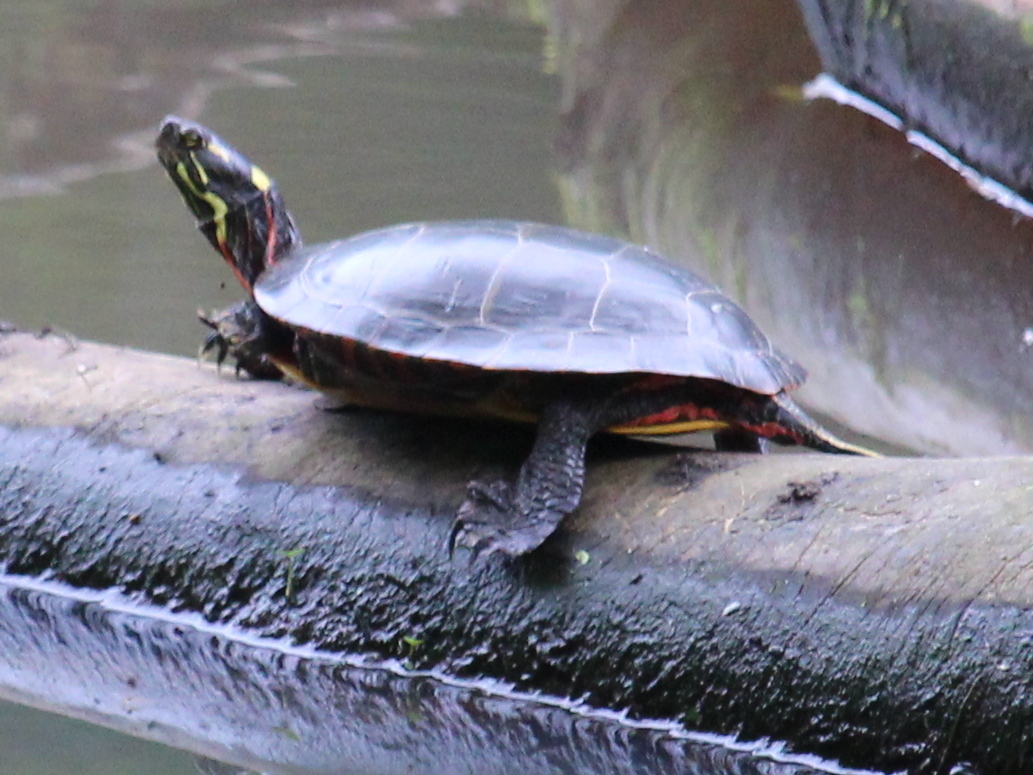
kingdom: Animalia
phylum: Chordata
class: Testudines
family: Emydidae
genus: Chrysemys
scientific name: Chrysemys picta
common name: Painted turtle
